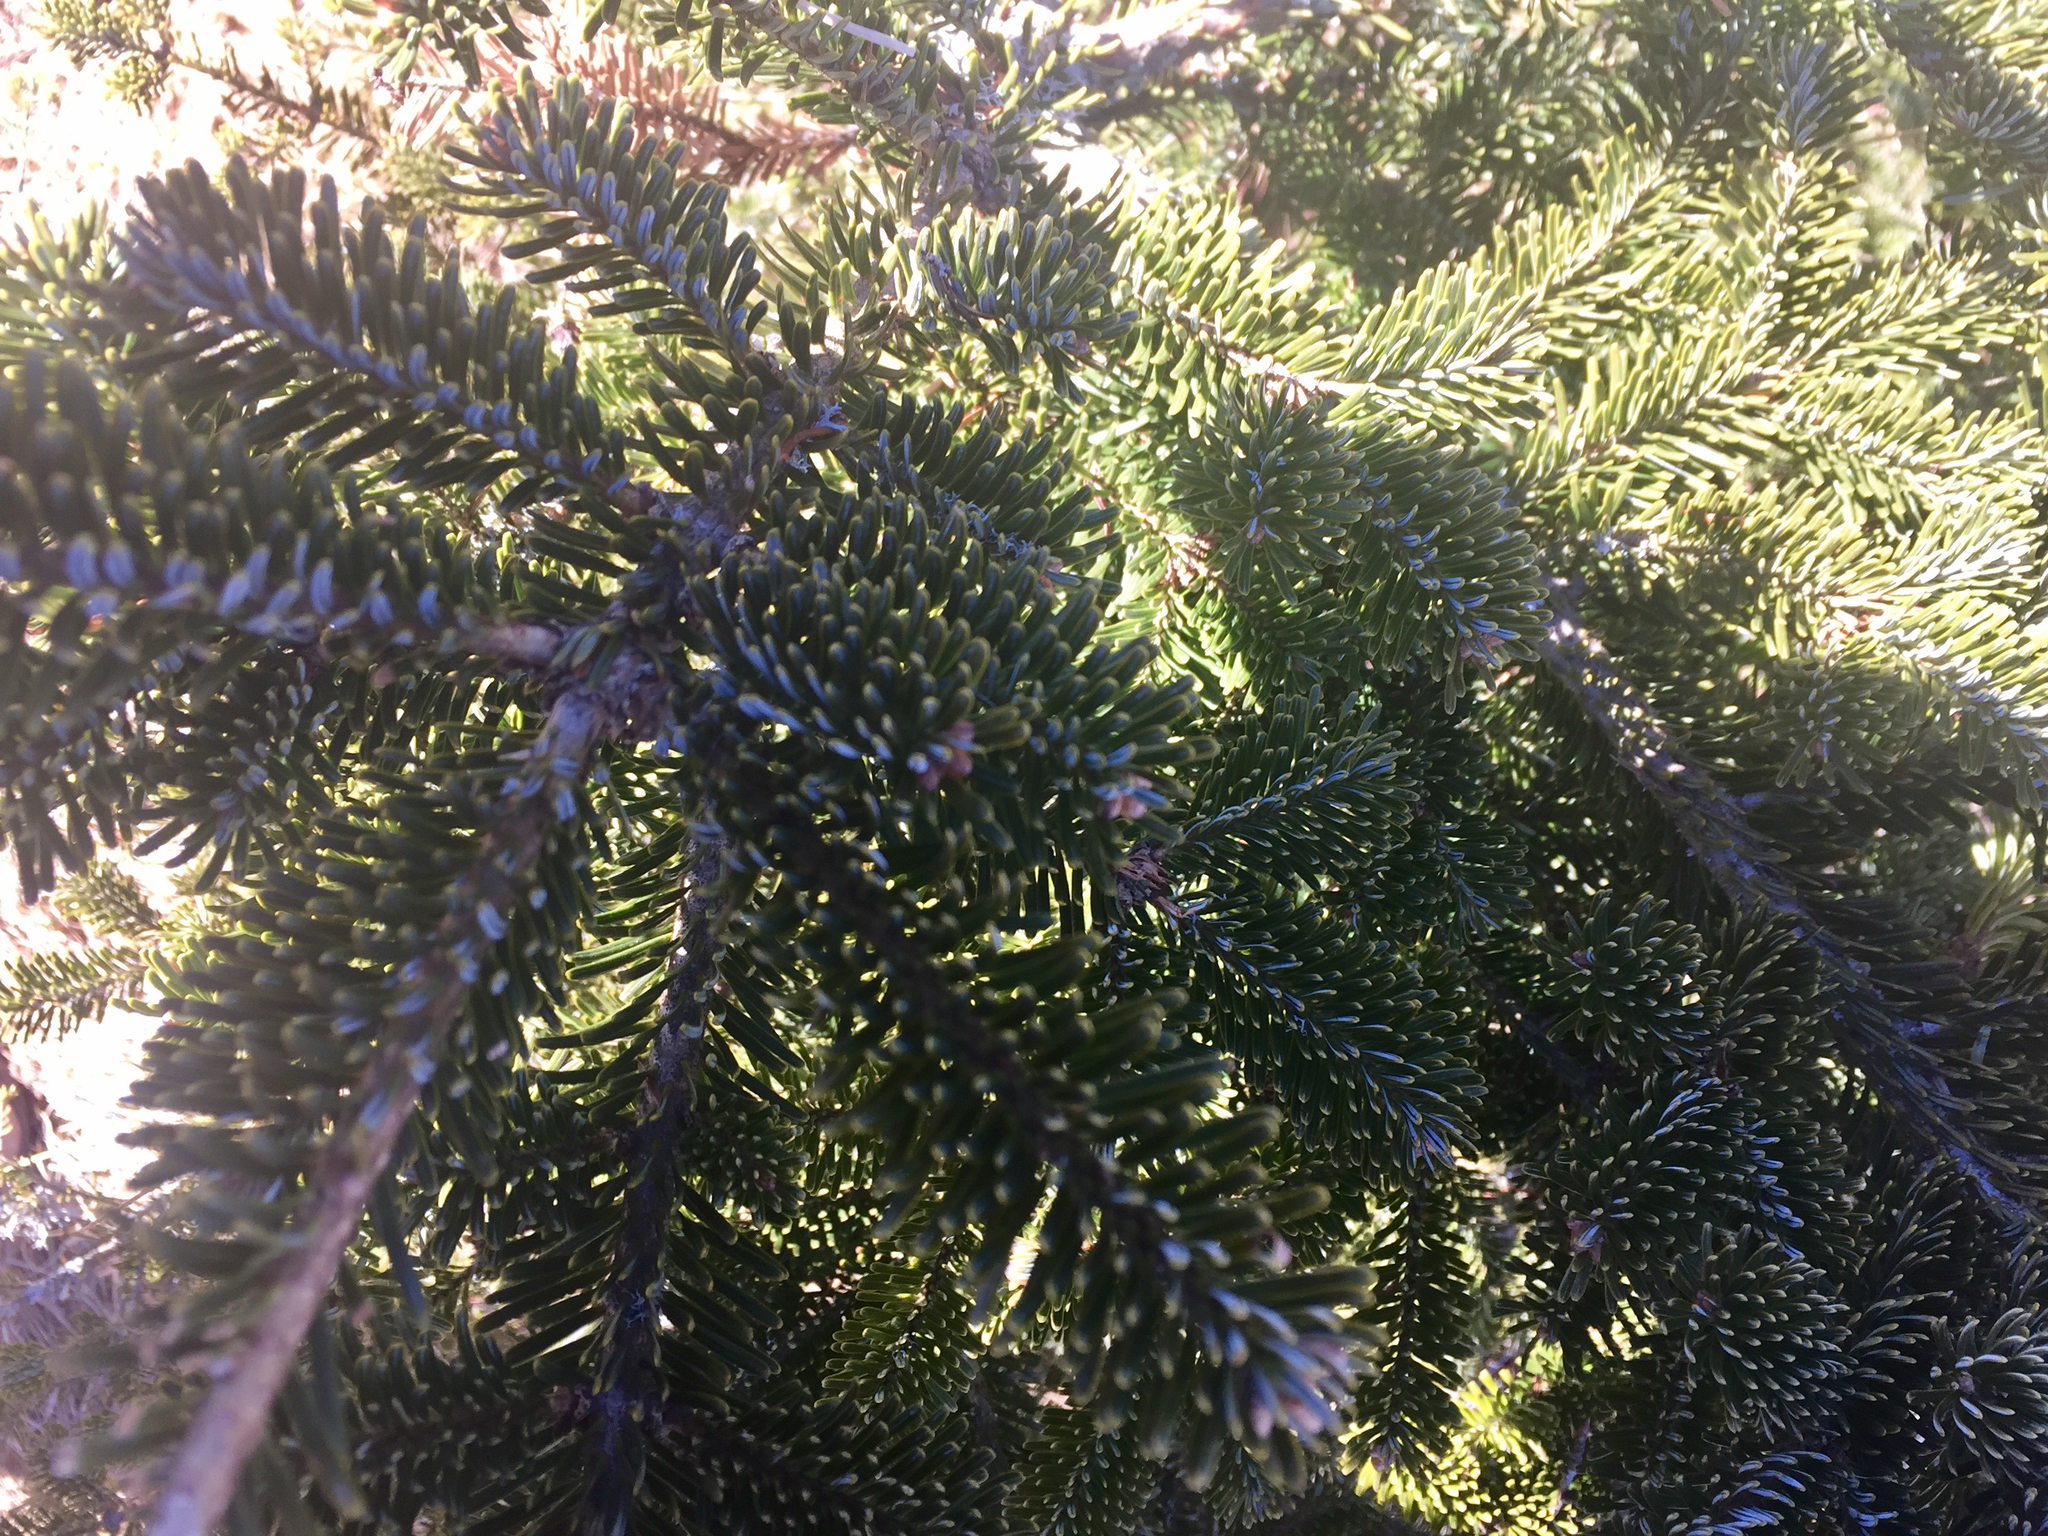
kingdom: Plantae
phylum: Tracheophyta
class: Pinopsida
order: Pinales
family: Pinaceae
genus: Abies
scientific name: Abies fraseri
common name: Fraser fir
